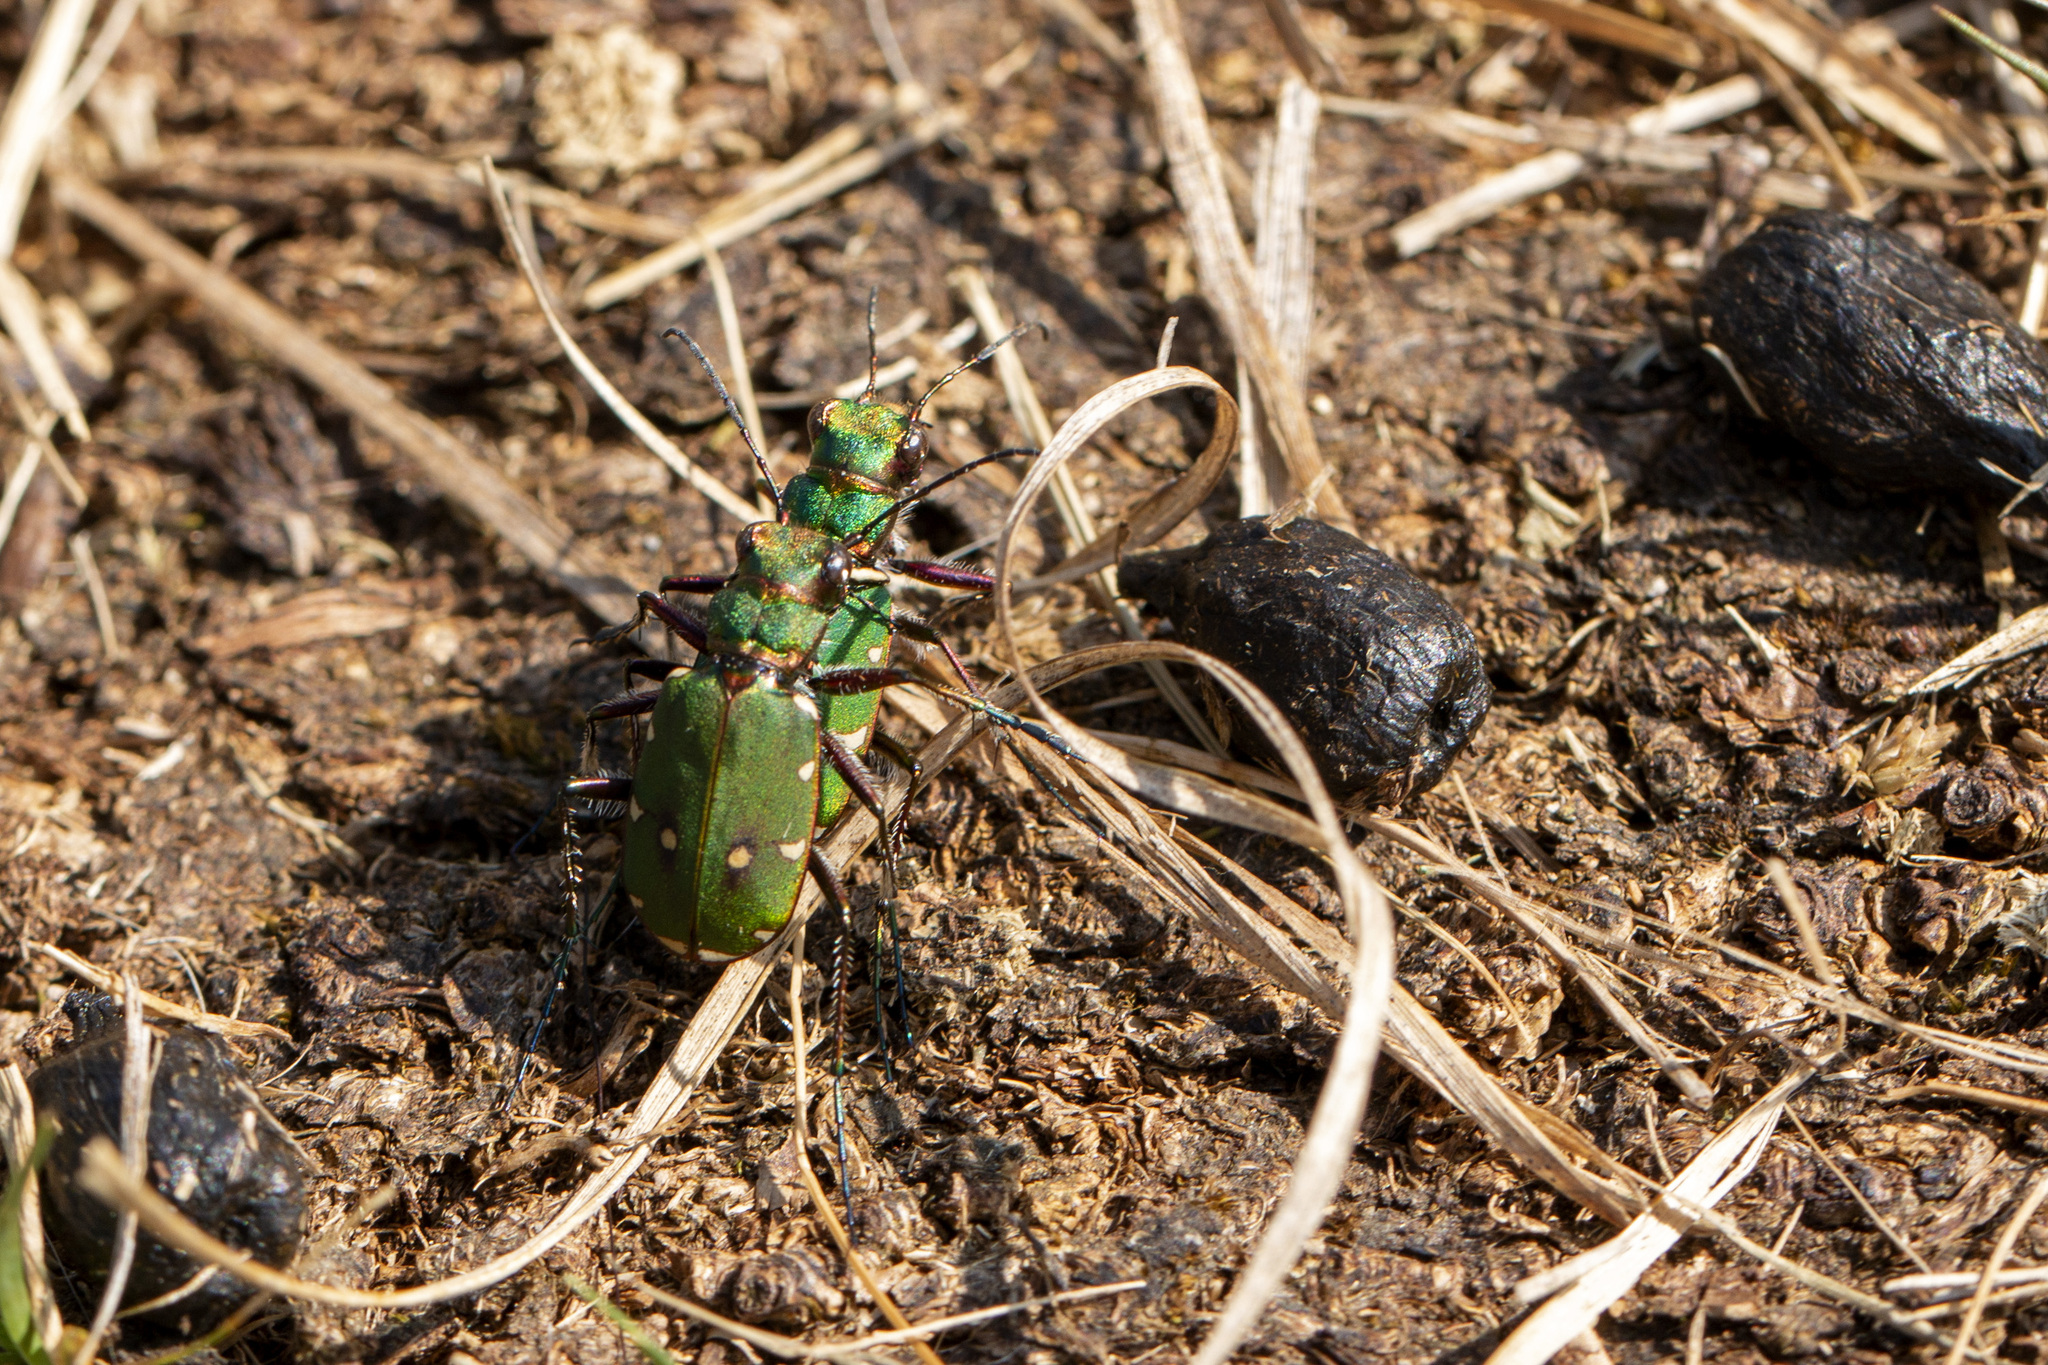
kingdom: Animalia
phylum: Arthropoda
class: Insecta
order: Coleoptera
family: Carabidae
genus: Cicindela
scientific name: Cicindela campestris
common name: Common tiger beetle
